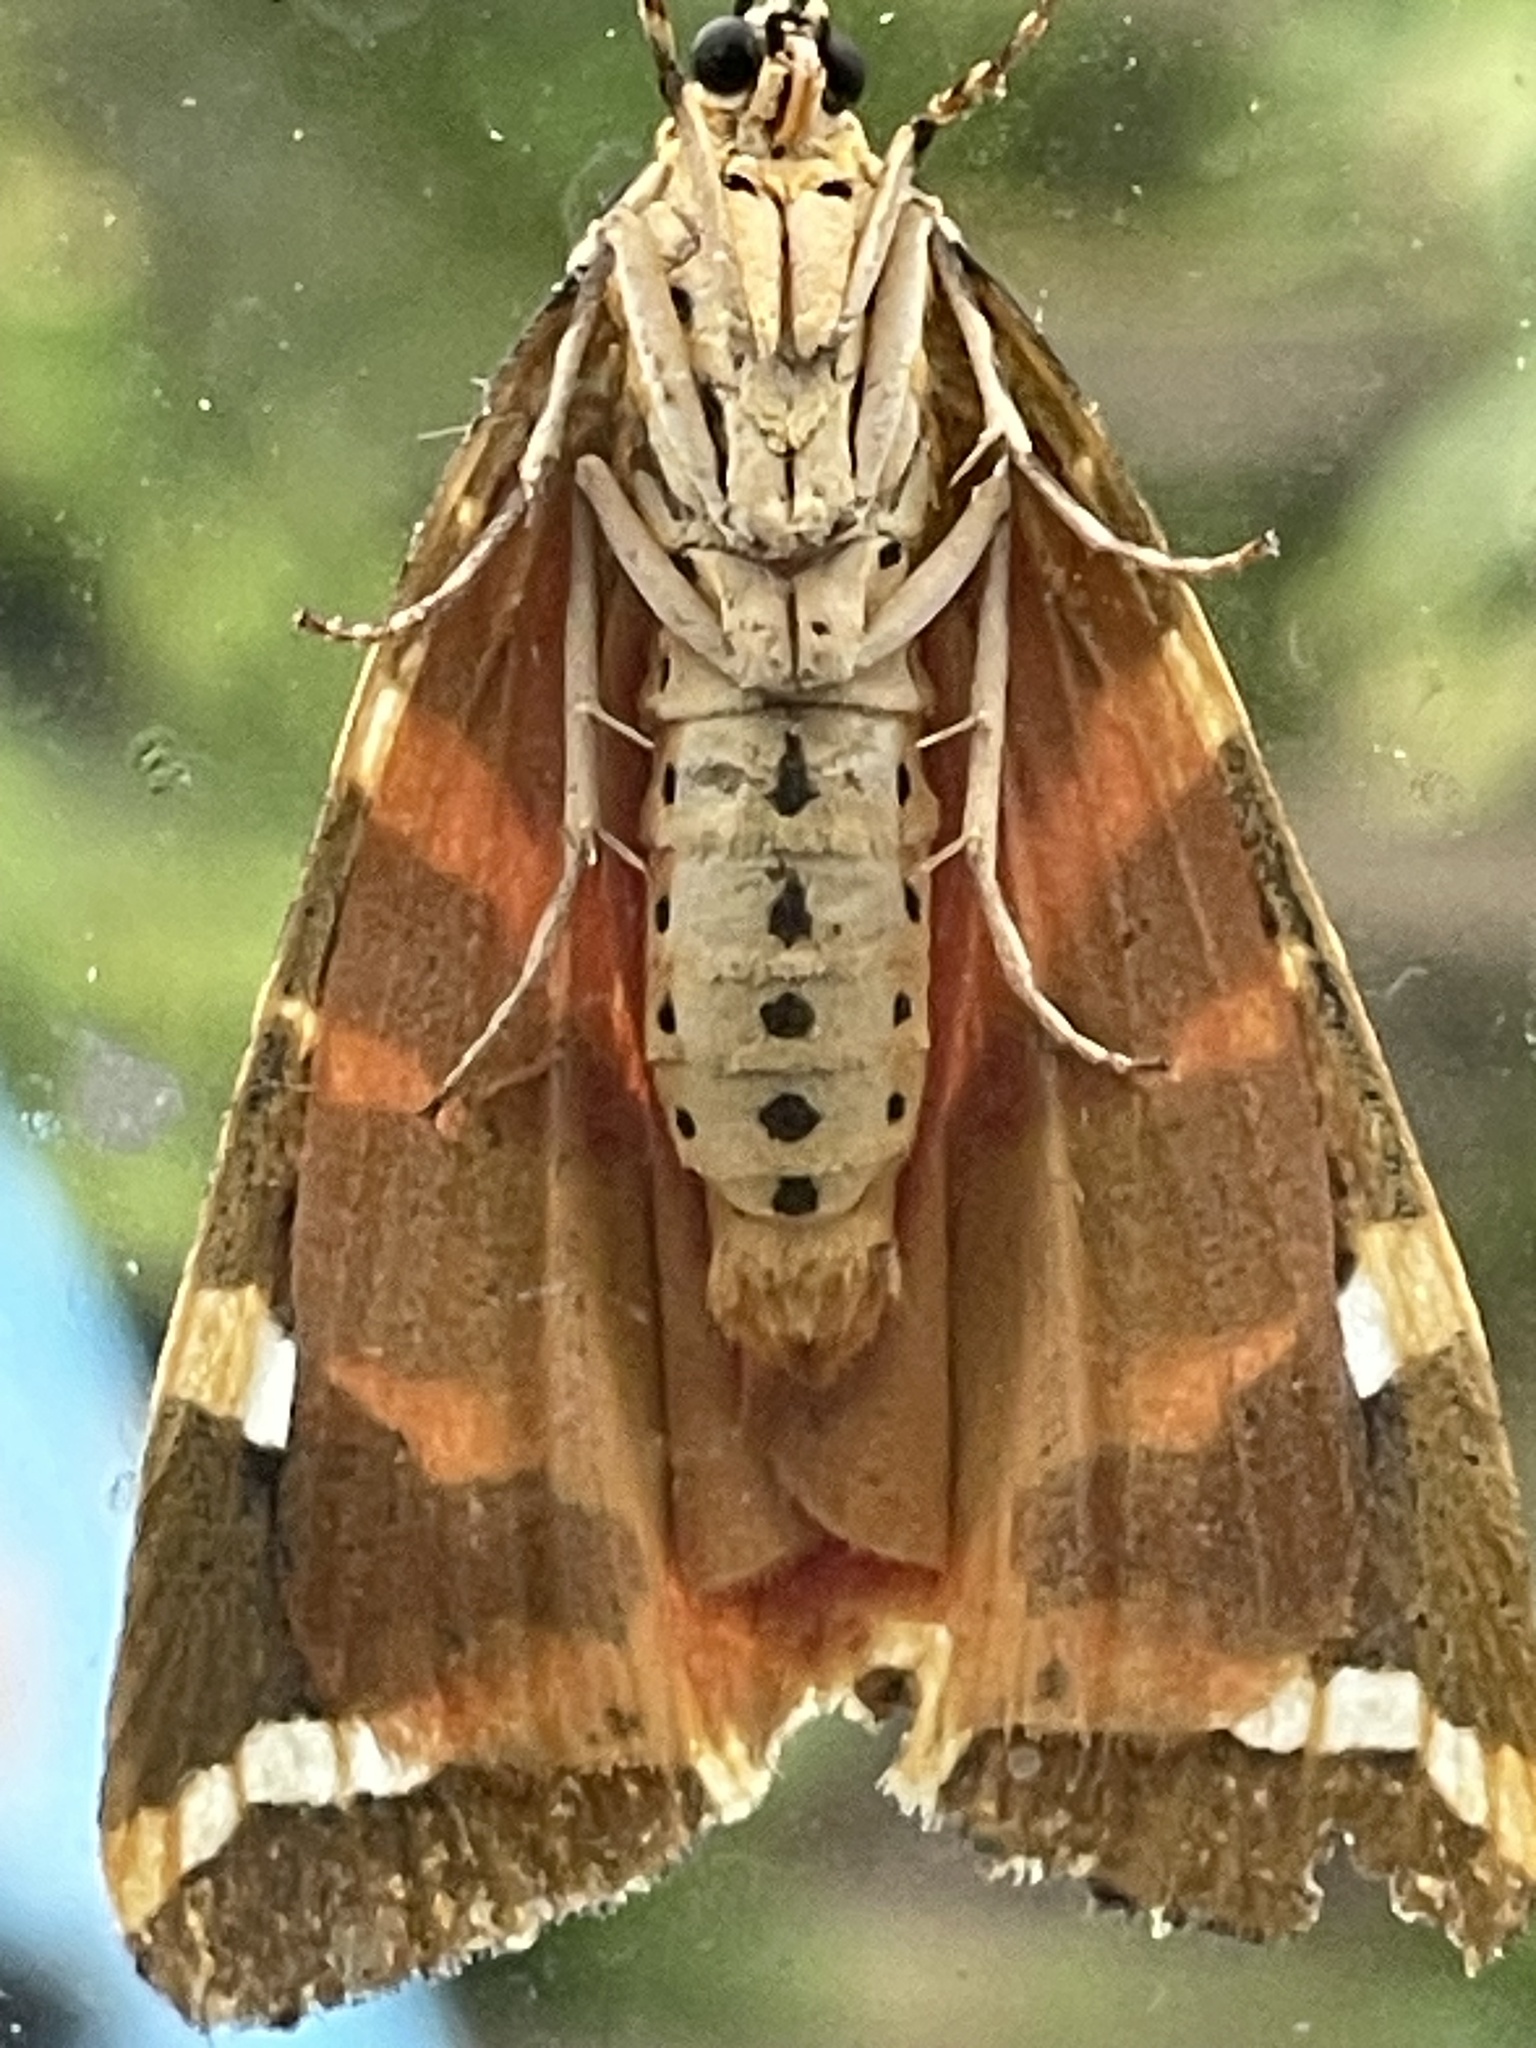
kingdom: Animalia
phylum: Arthropoda
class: Insecta
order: Lepidoptera
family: Erebidae
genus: Euplagia
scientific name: Euplagia quadripunctaria
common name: Jersey tiger
